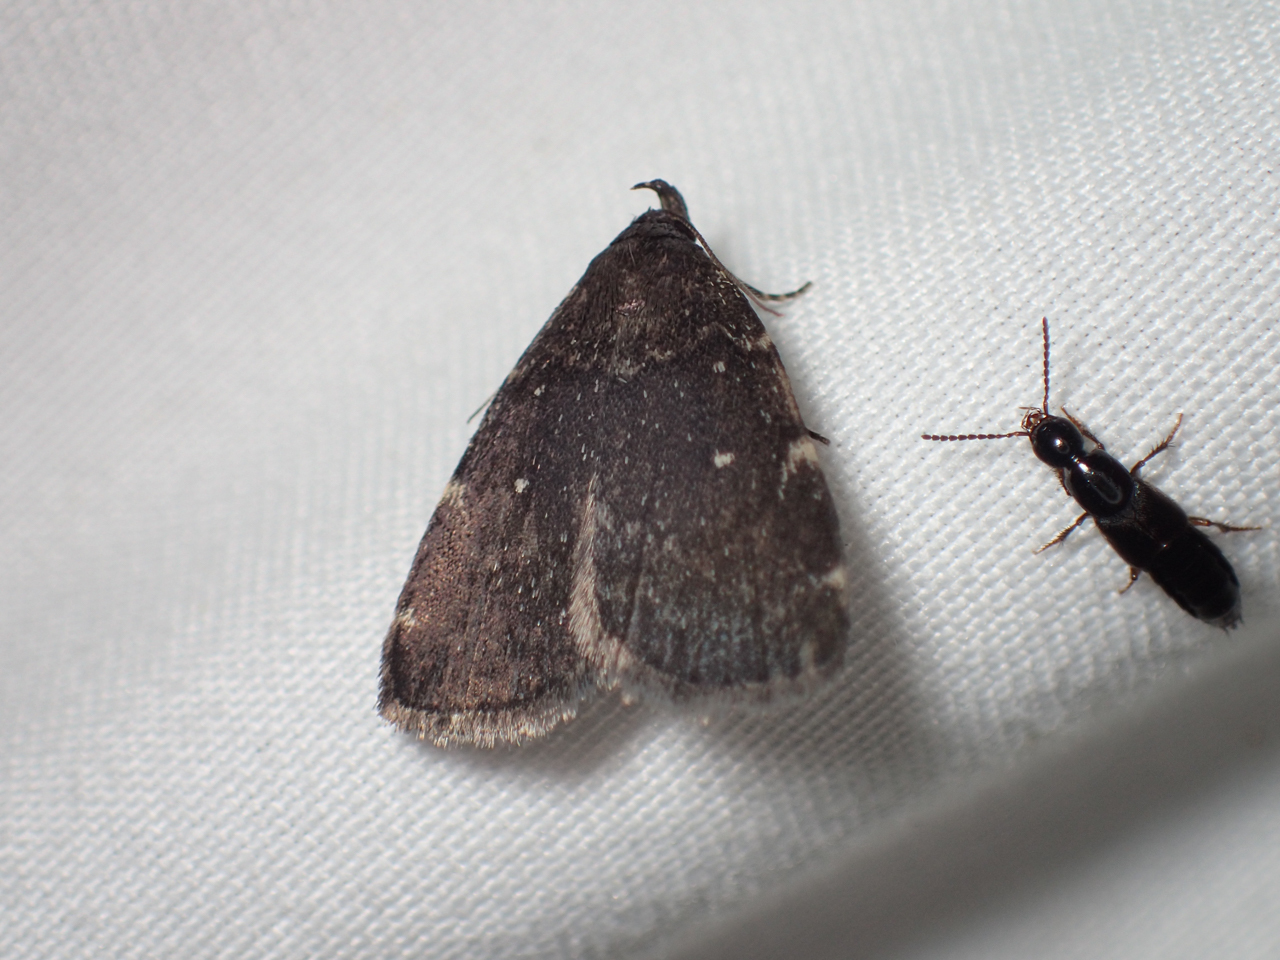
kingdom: Animalia
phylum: Arthropoda
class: Insecta
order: Lepidoptera
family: Erebidae
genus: Idia
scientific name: Idia julia
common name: Julia's idia moth
